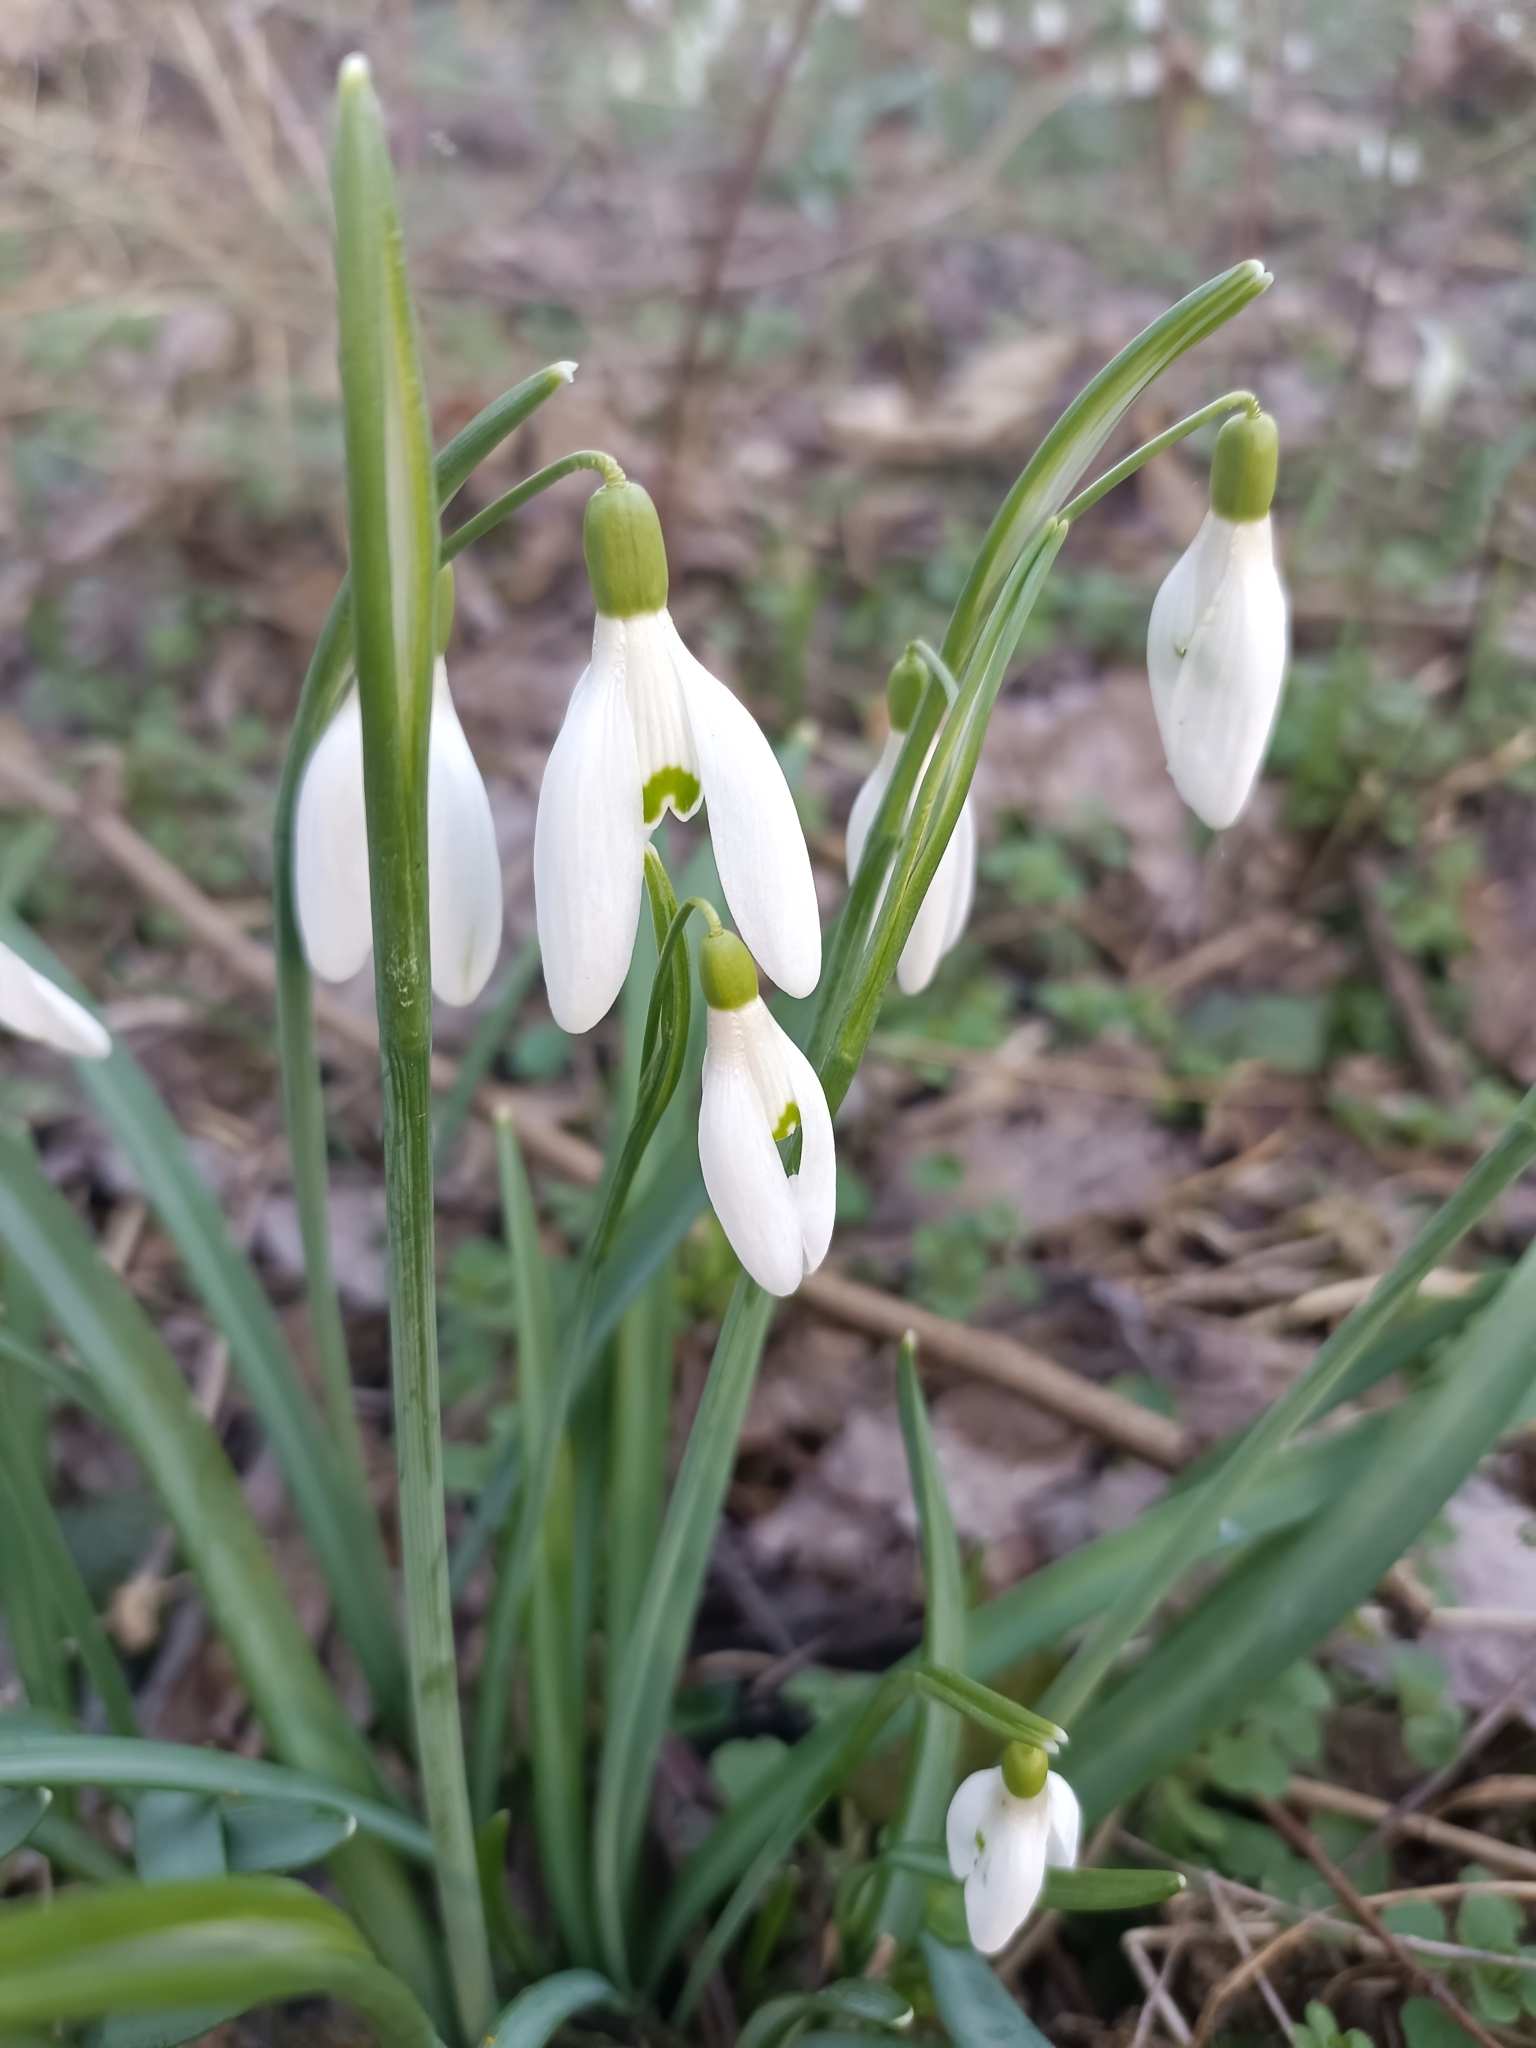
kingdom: Plantae
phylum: Tracheophyta
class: Liliopsida
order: Asparagales
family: Amaryllidaceae
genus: Galanthus
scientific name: Galanthus nivalis
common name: Snowdrop
